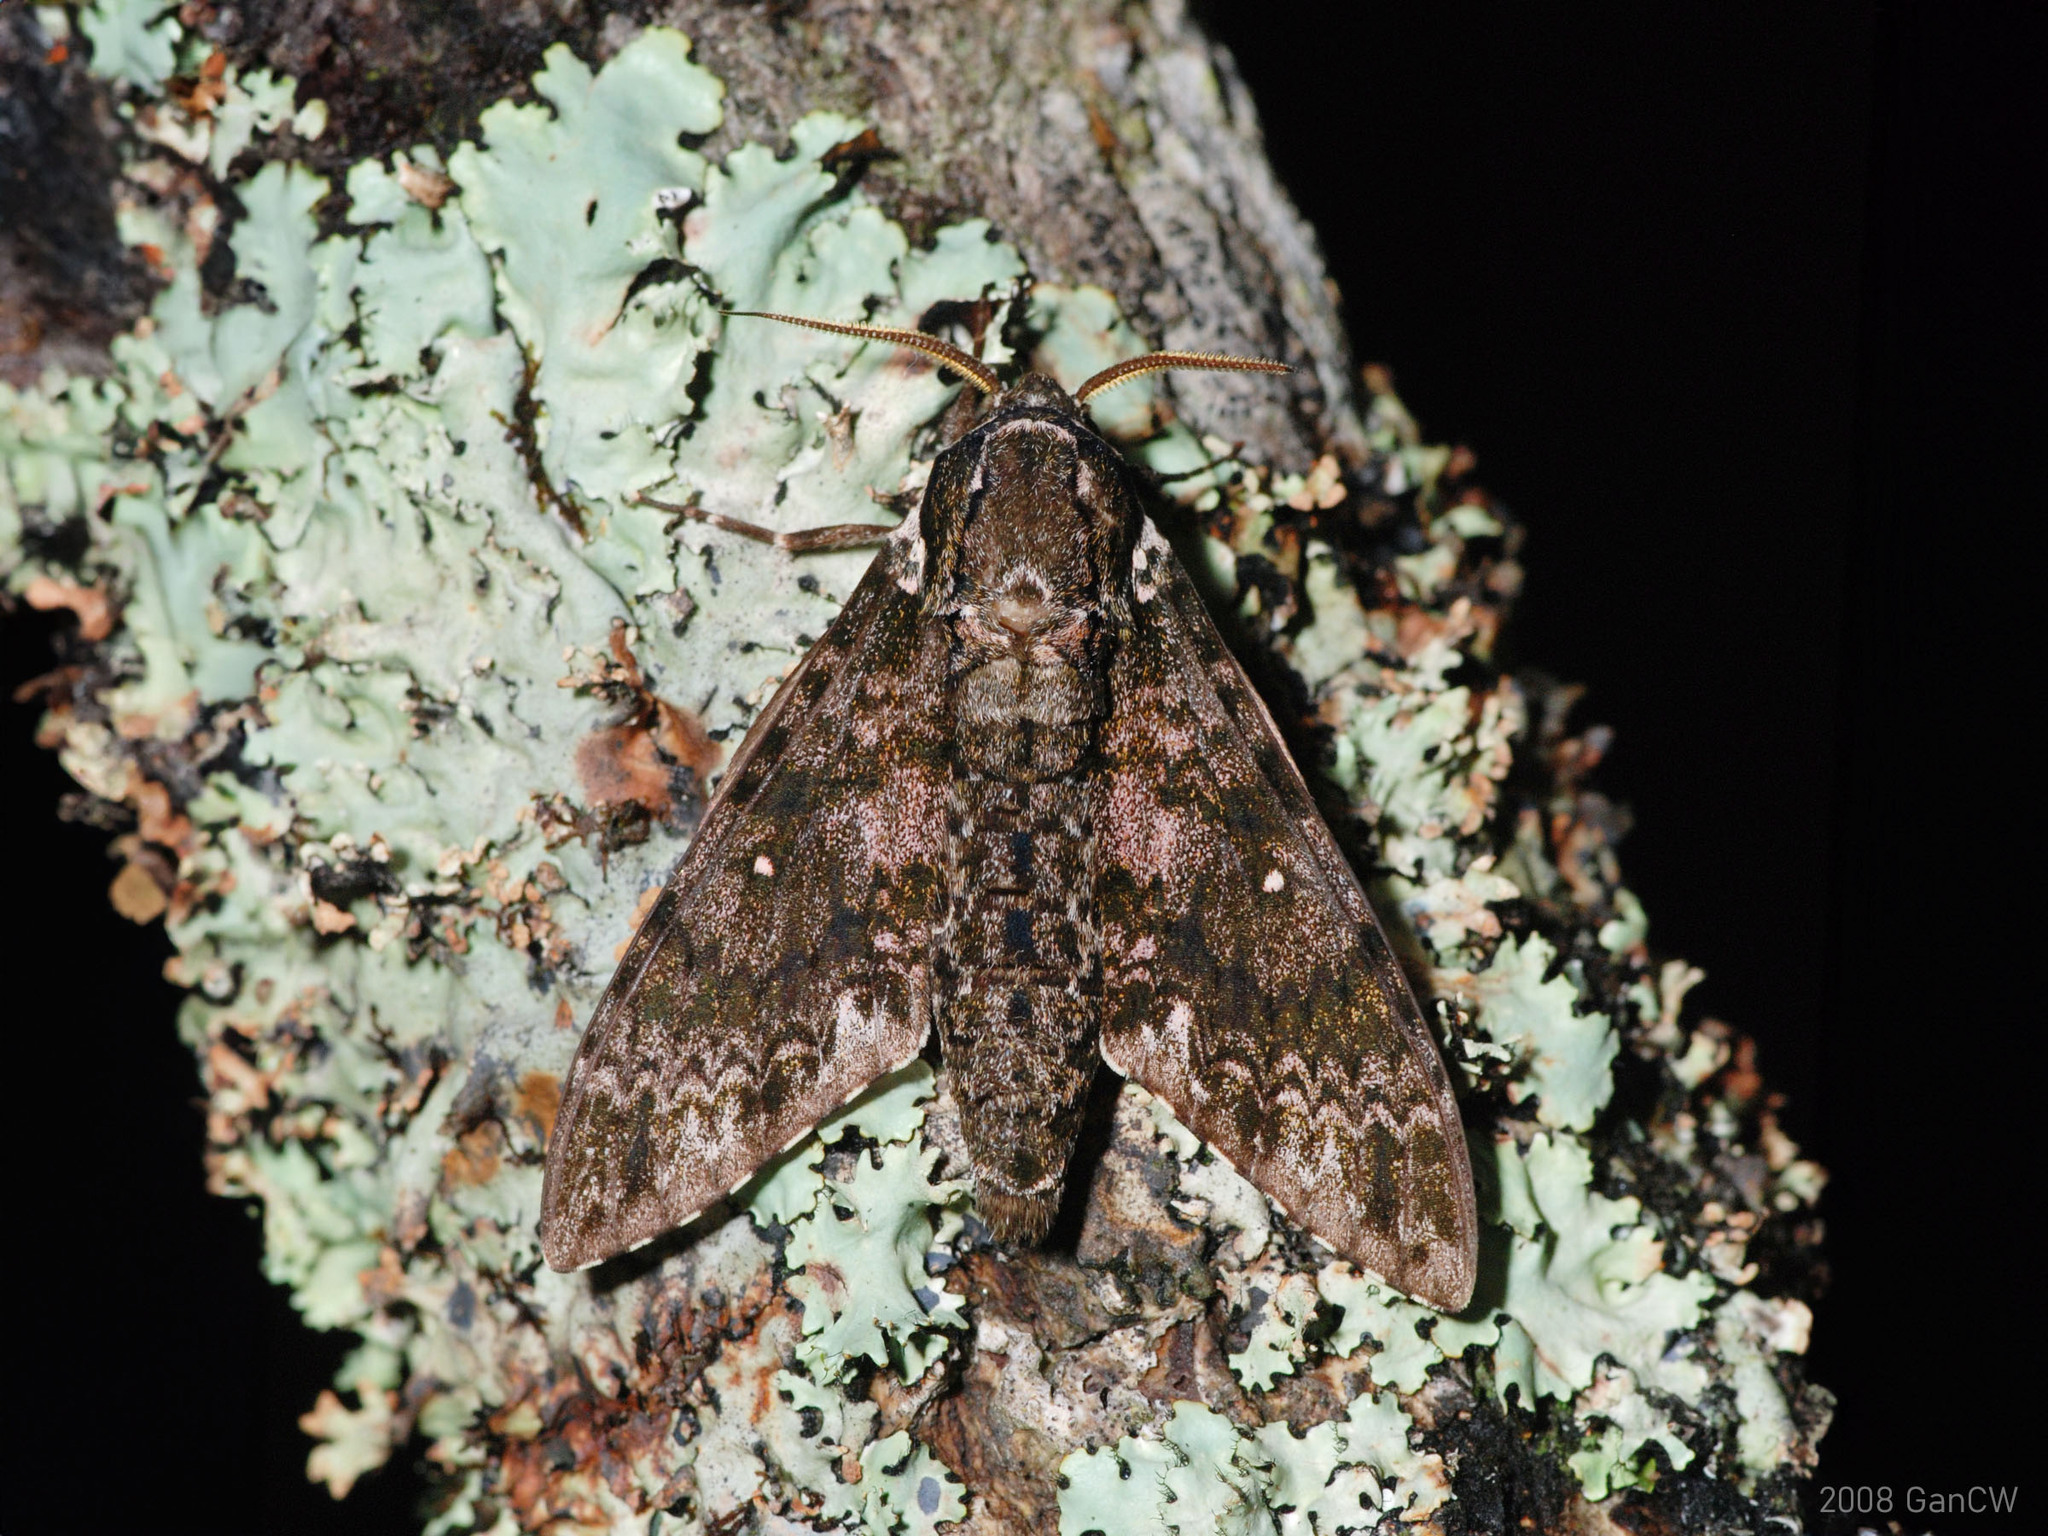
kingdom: Animalia
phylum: Arthropoda
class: Insecta
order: Lepidoptera
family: Sphingidae
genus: Dolbina
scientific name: Dolbina krikkeni
